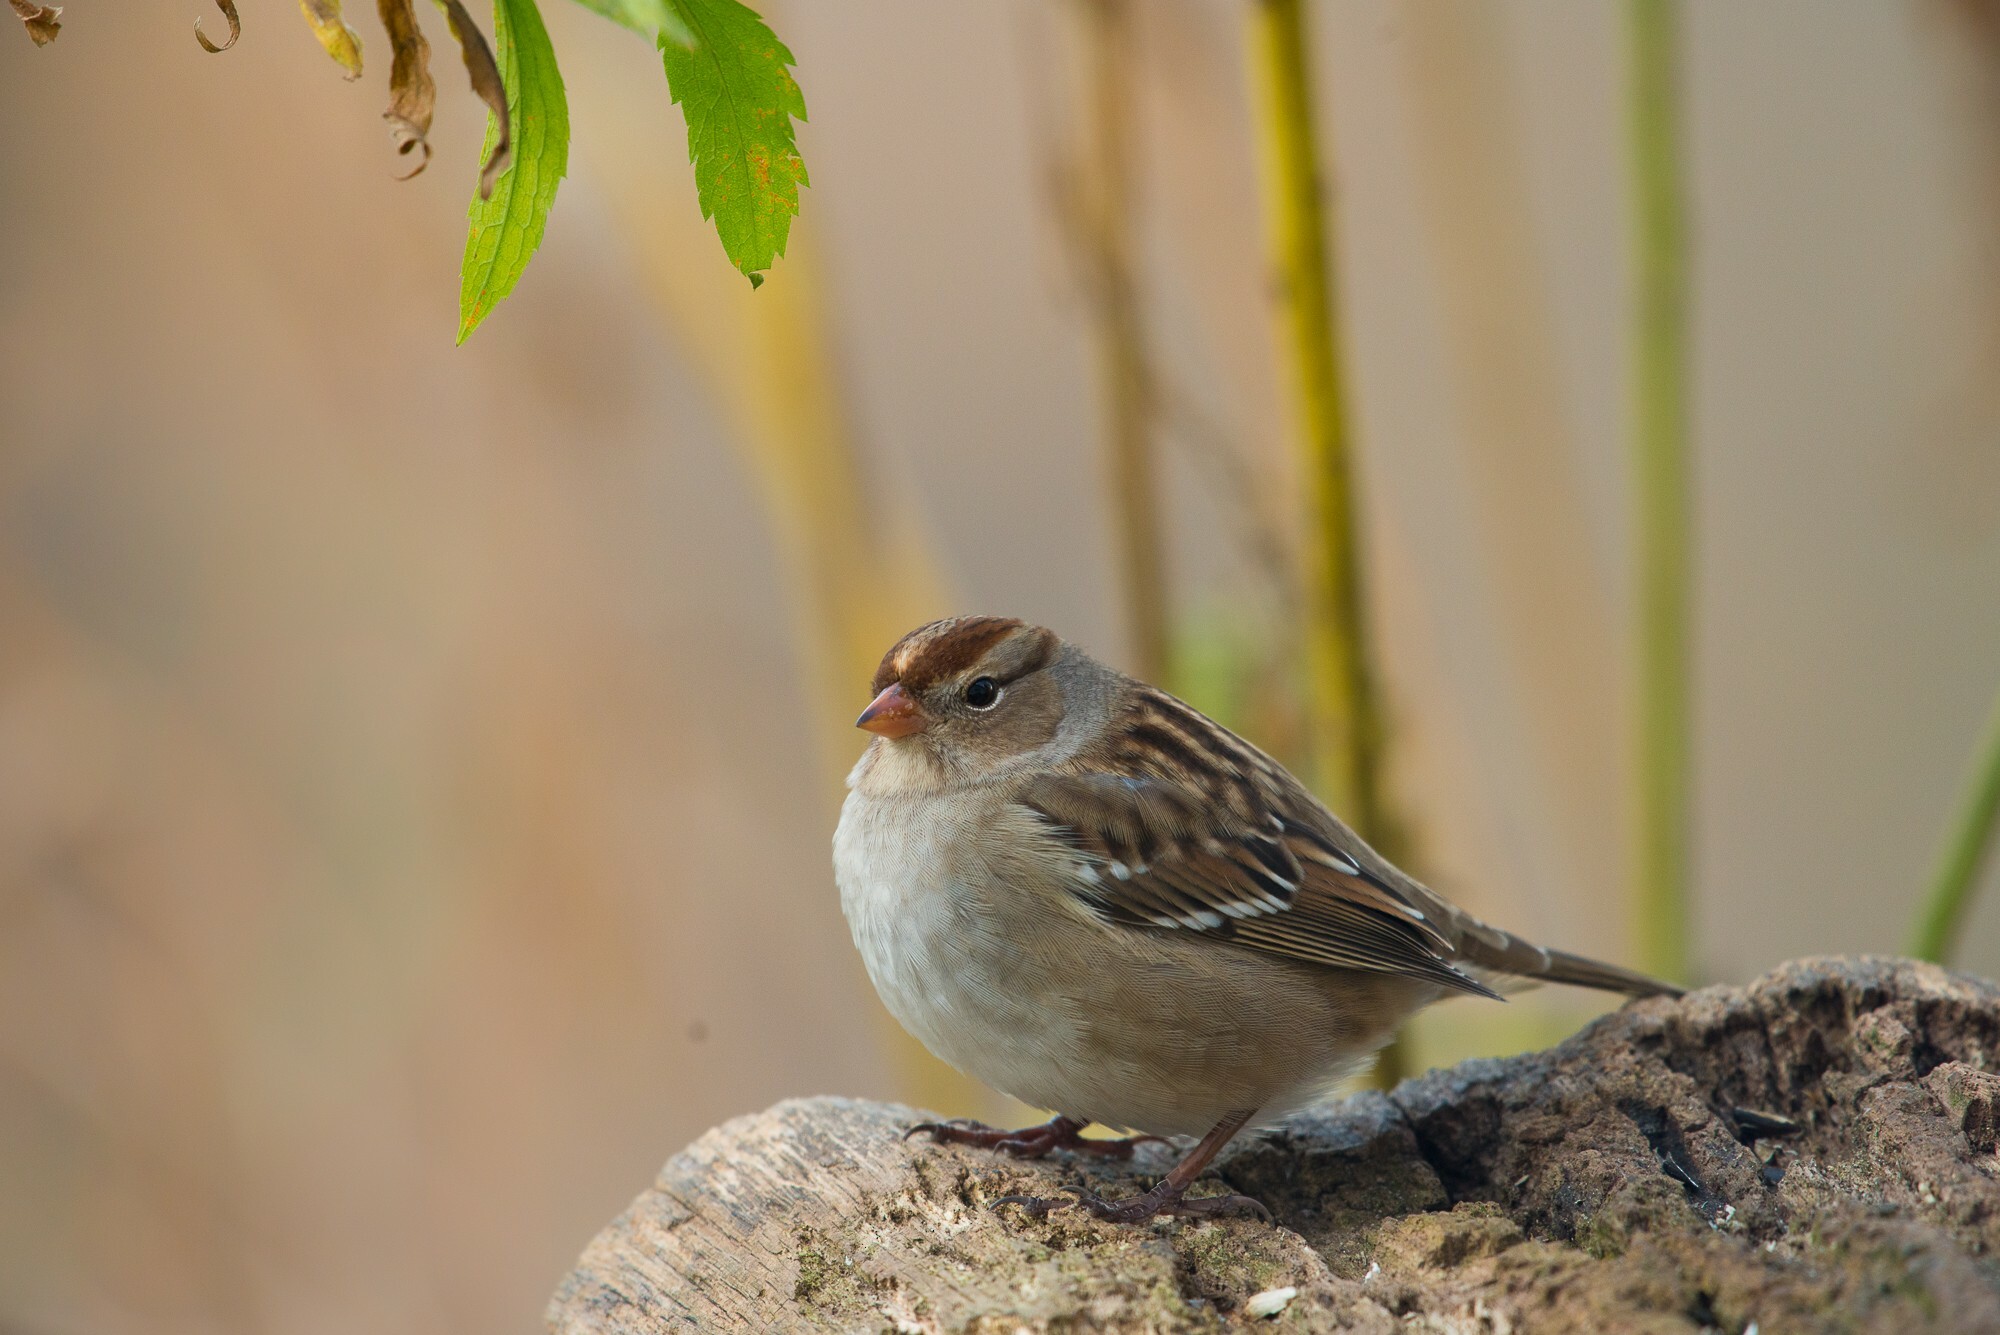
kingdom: Animalia
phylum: Chordata
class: Aves
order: Passeriformes
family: Passerellidae
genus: Zonotrichia
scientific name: Zonotrichia leucophrys
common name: White-crowned sparrow
